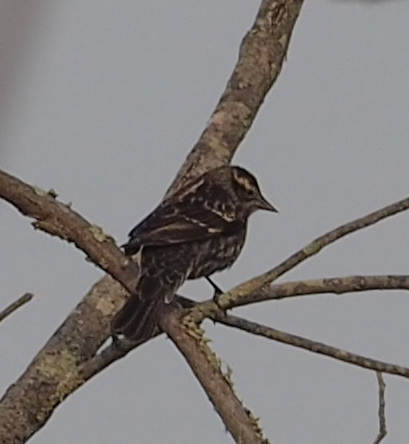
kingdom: Animalia
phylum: Chordata
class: Aves
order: Passeriformes
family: Icteridae
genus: Agelaius
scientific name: Agelaius phoeniceus
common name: Red-winged blackbird
